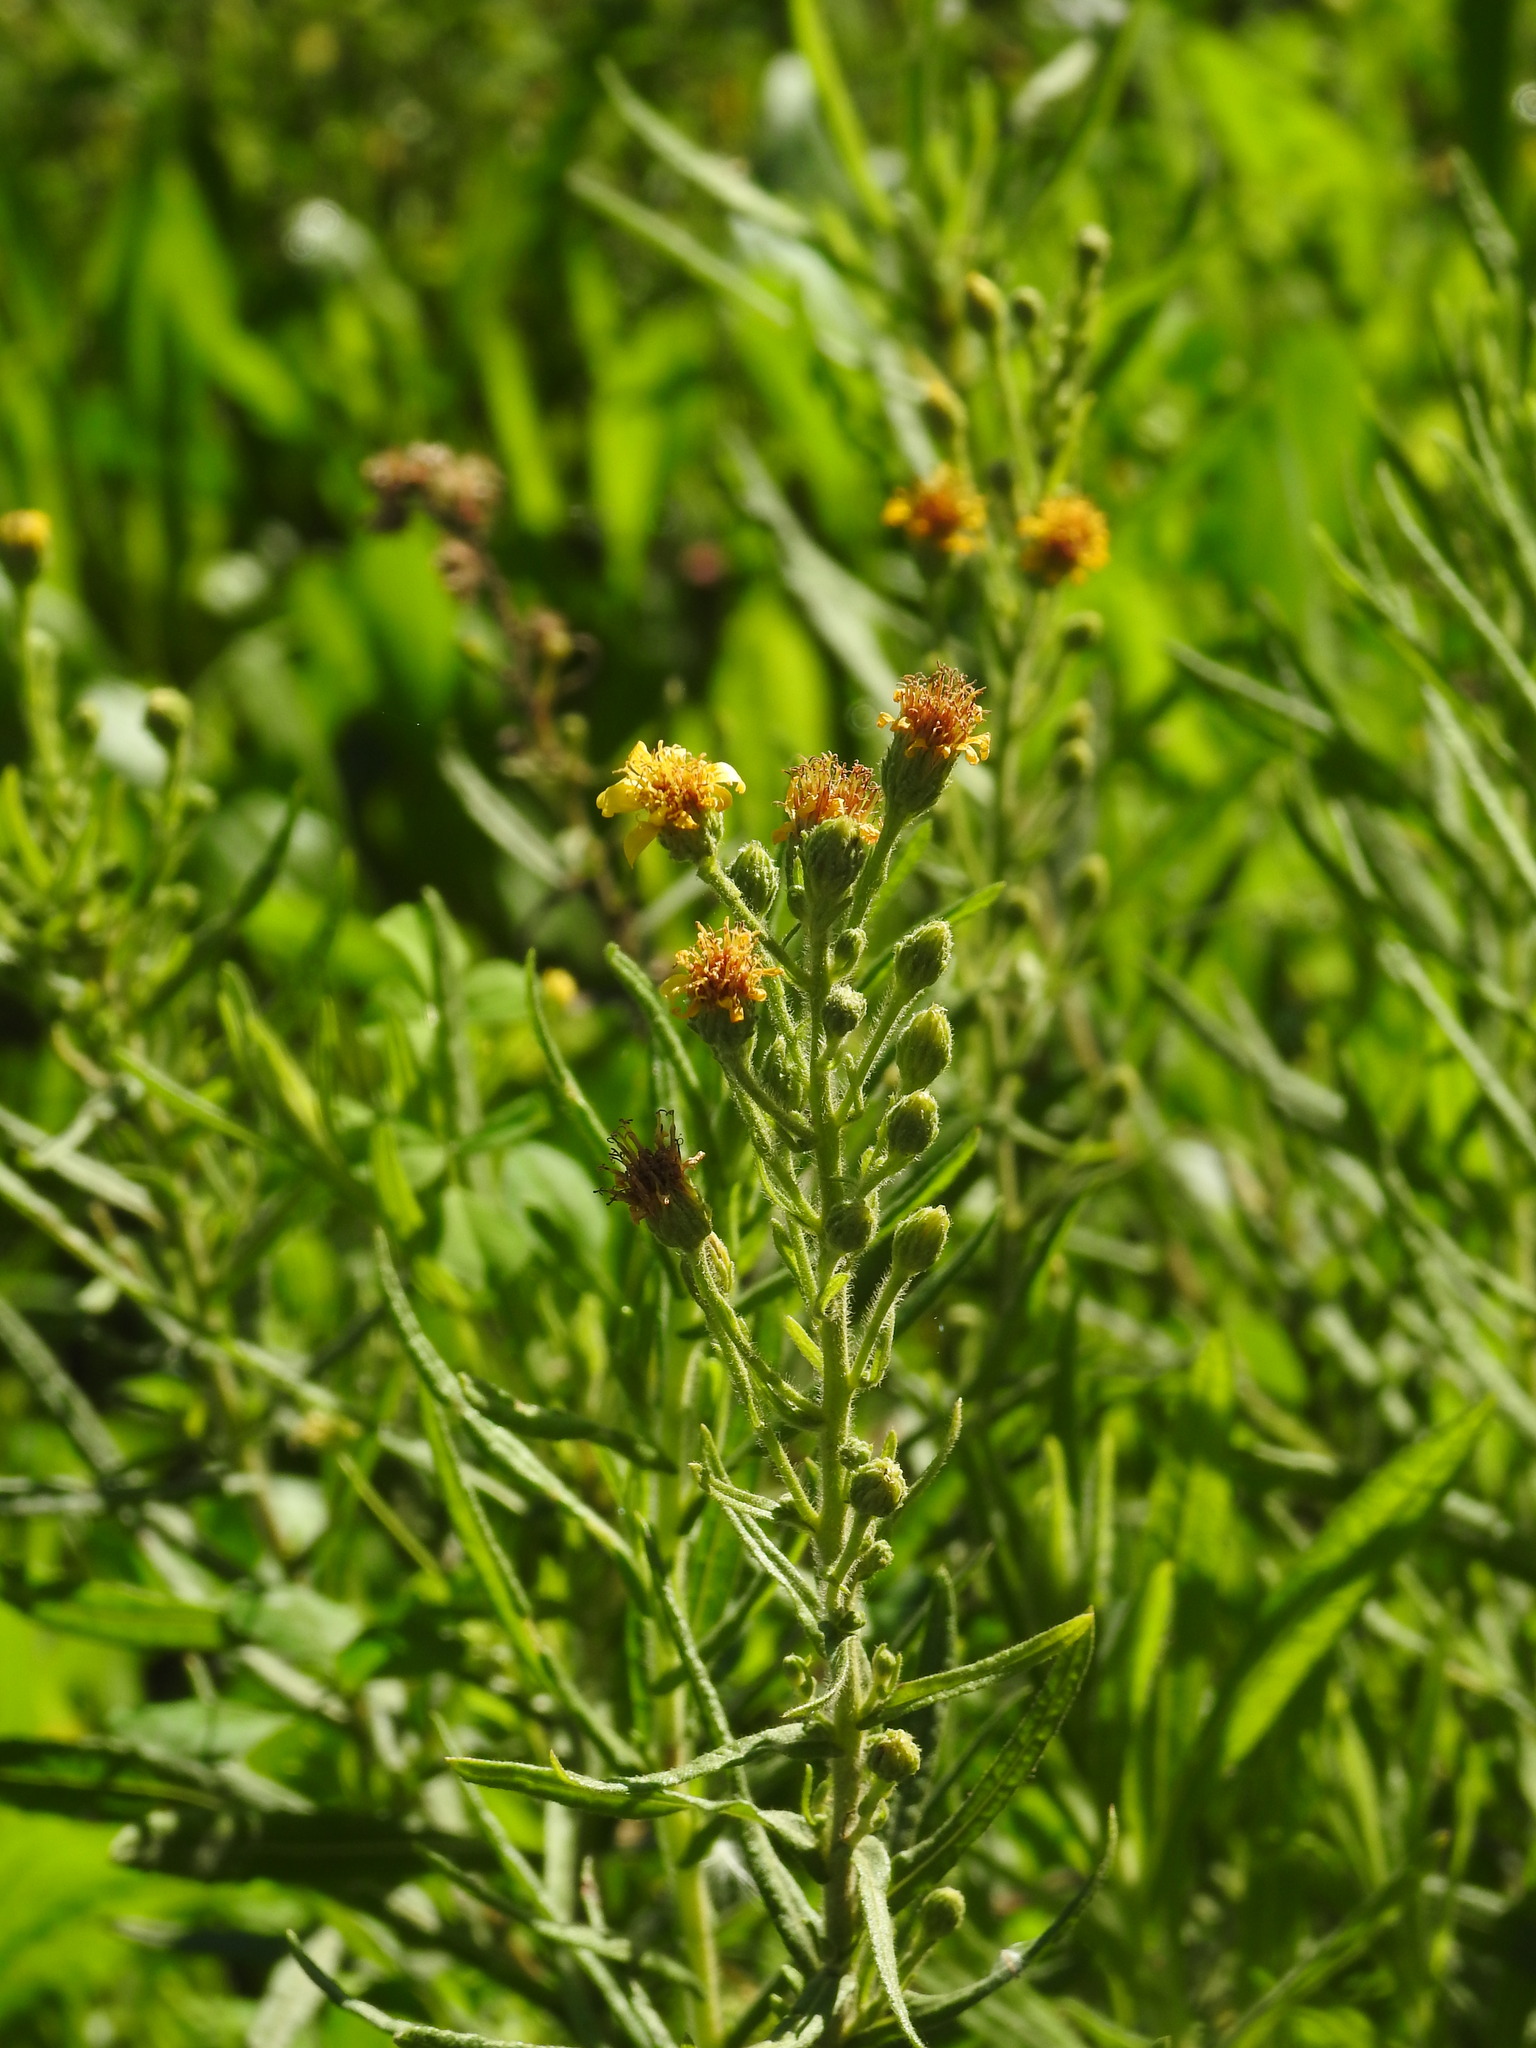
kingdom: Plantae
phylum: Tracheophyta
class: Magnoliopsida
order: Asterales
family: Asteraceae
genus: Dittrichia
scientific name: Dittrichia viscosa
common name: Woody fleabane
